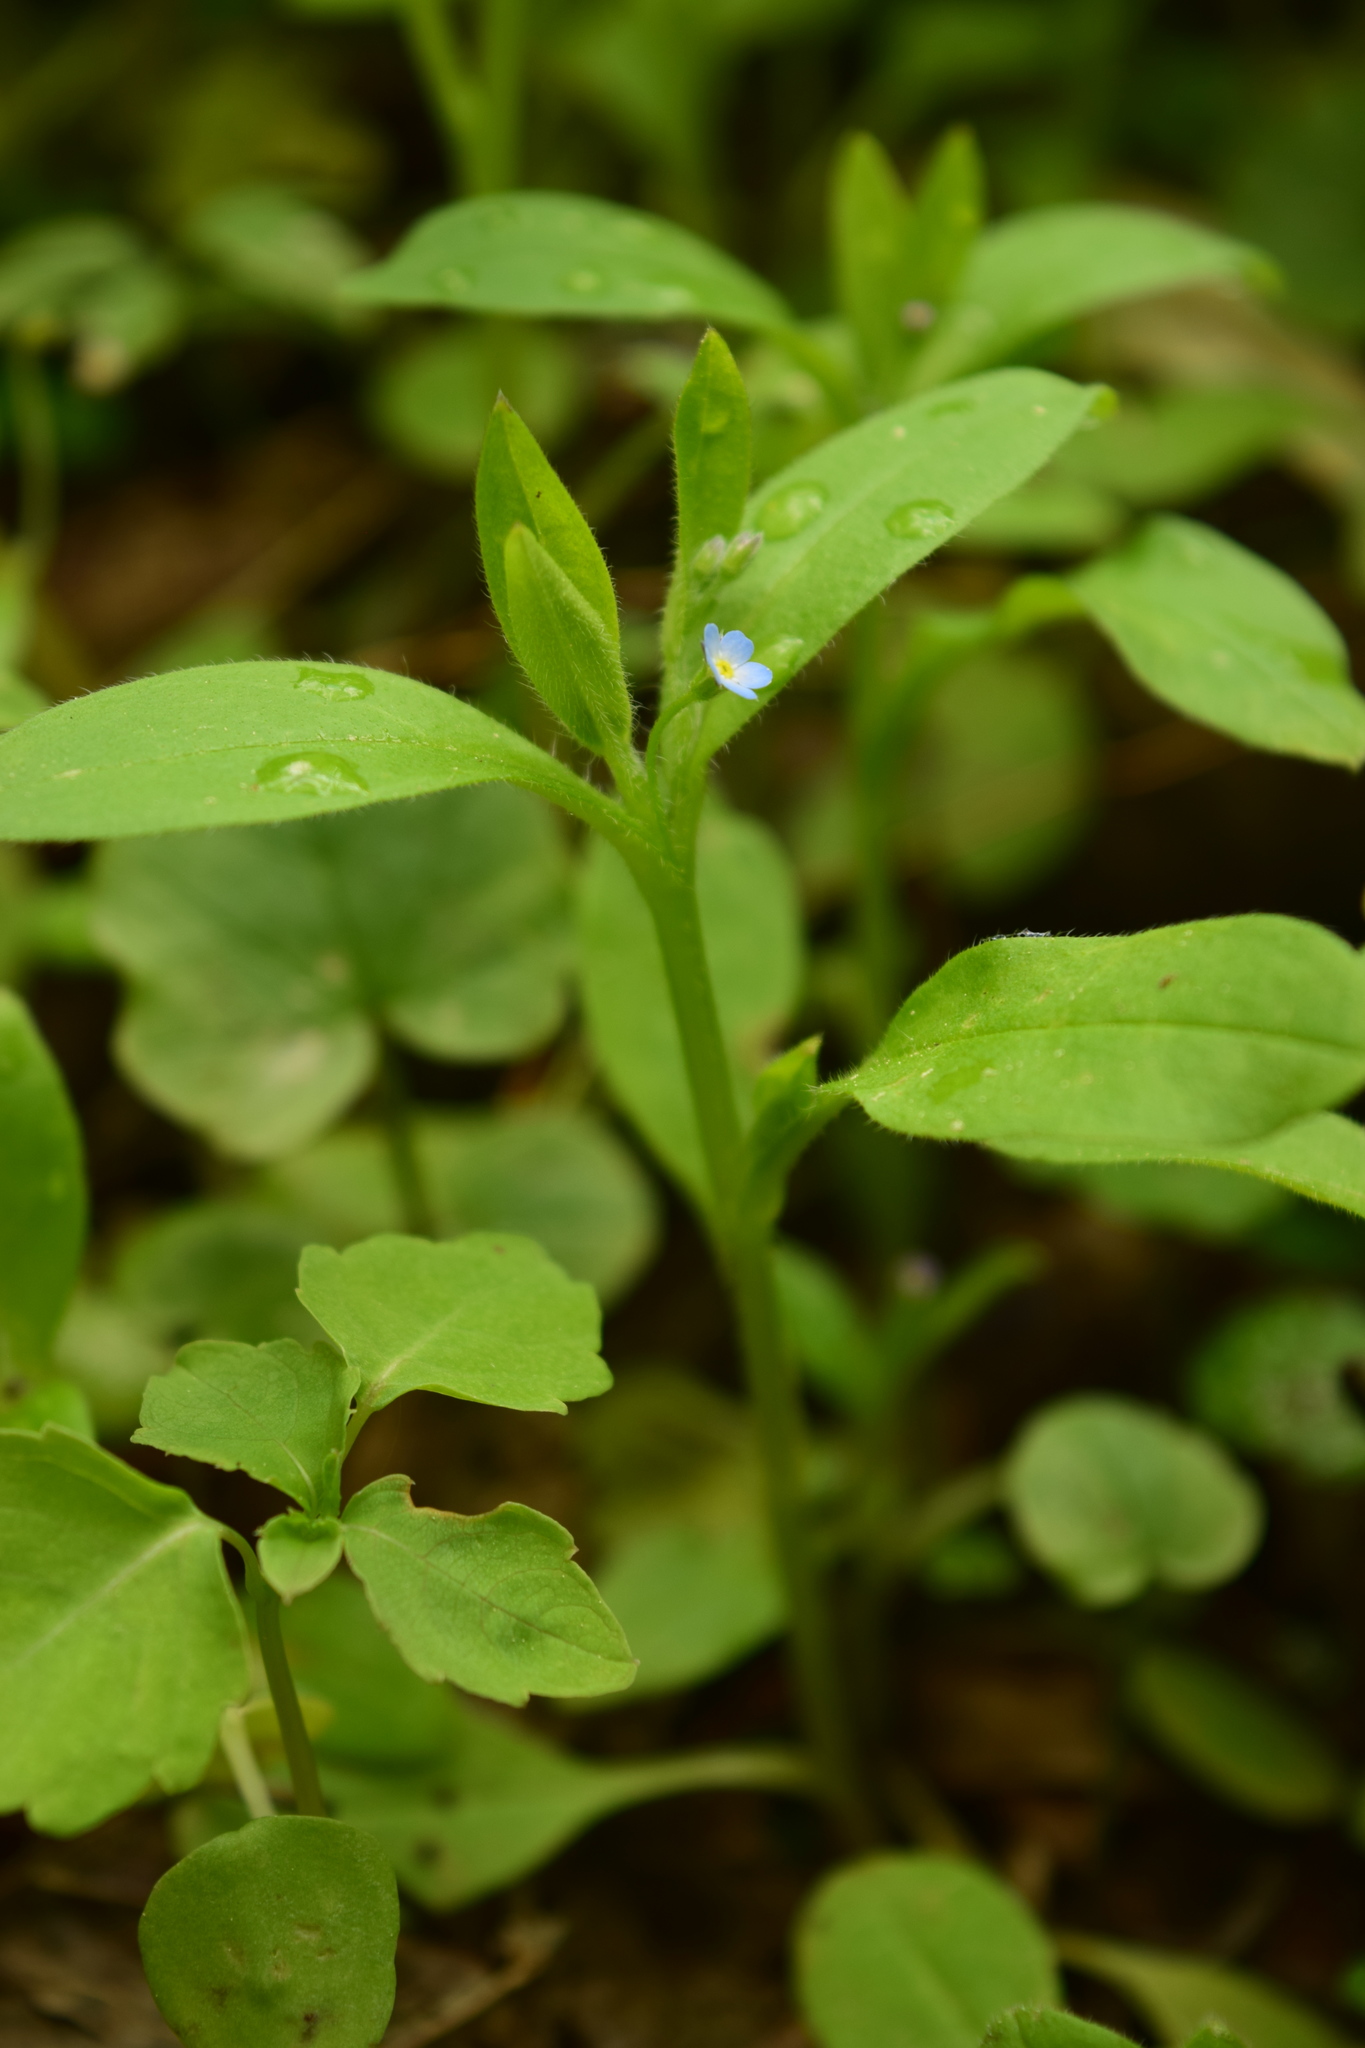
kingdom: Plantae
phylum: Tracheophyta
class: Magnoliopsida
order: Boraginales
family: Boraginaceae
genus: Myosotis
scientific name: Myosotis sparsiflora
